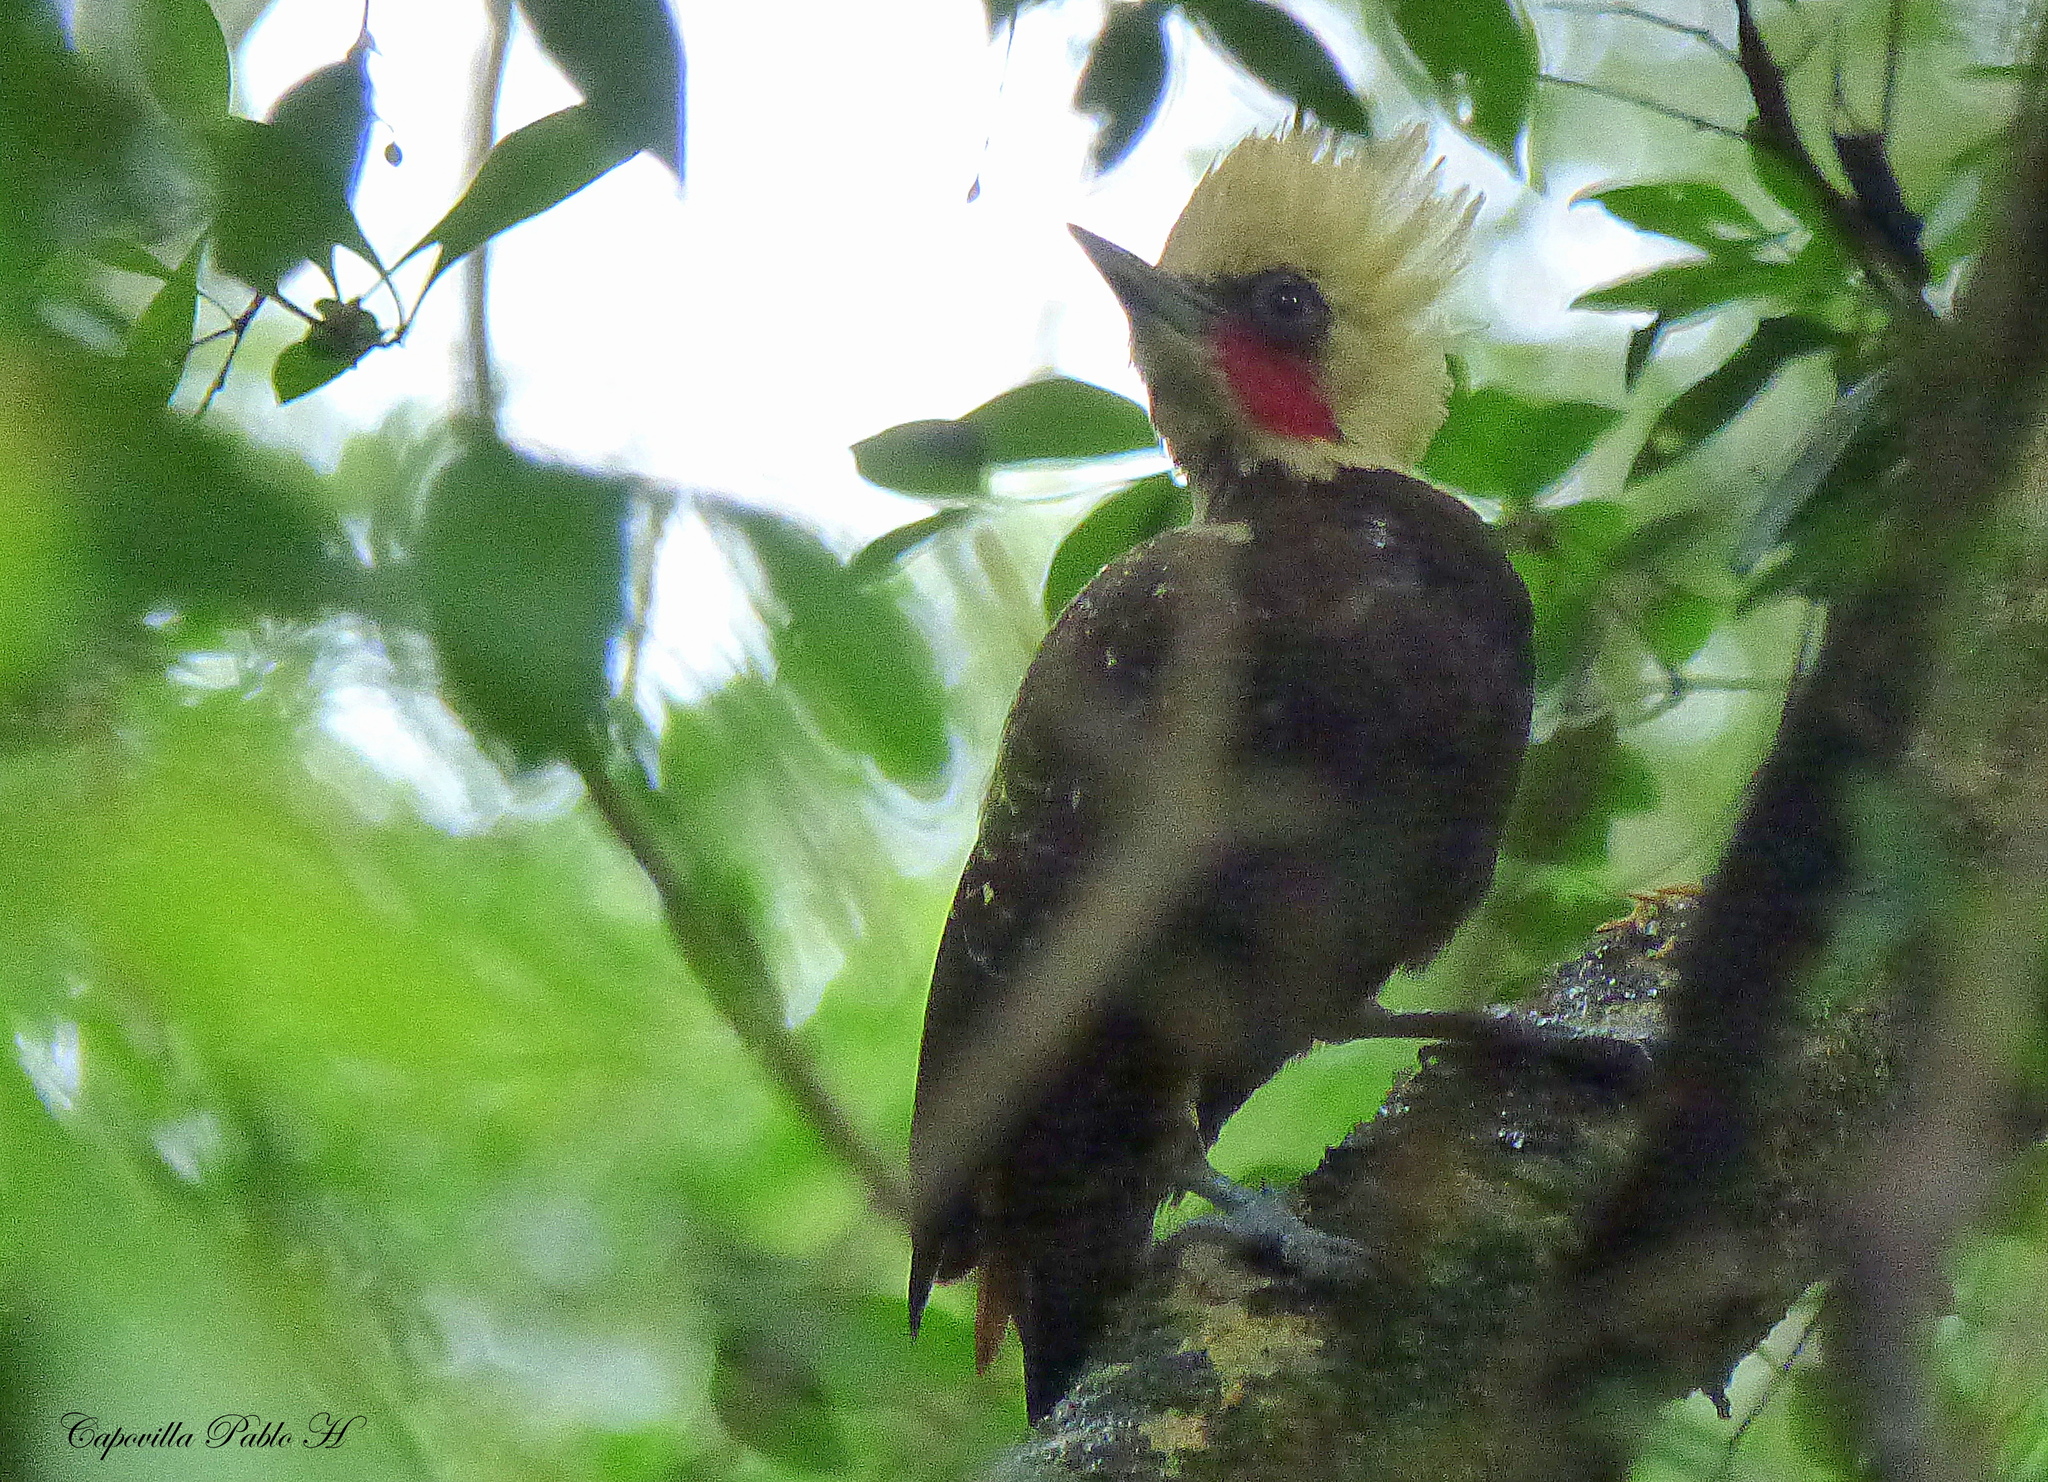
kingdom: Animalia
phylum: Chordata
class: Aves
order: Piciformes
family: Picidae
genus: Celeus
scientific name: Celeus lugubris
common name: Pale-crested woodpecker
